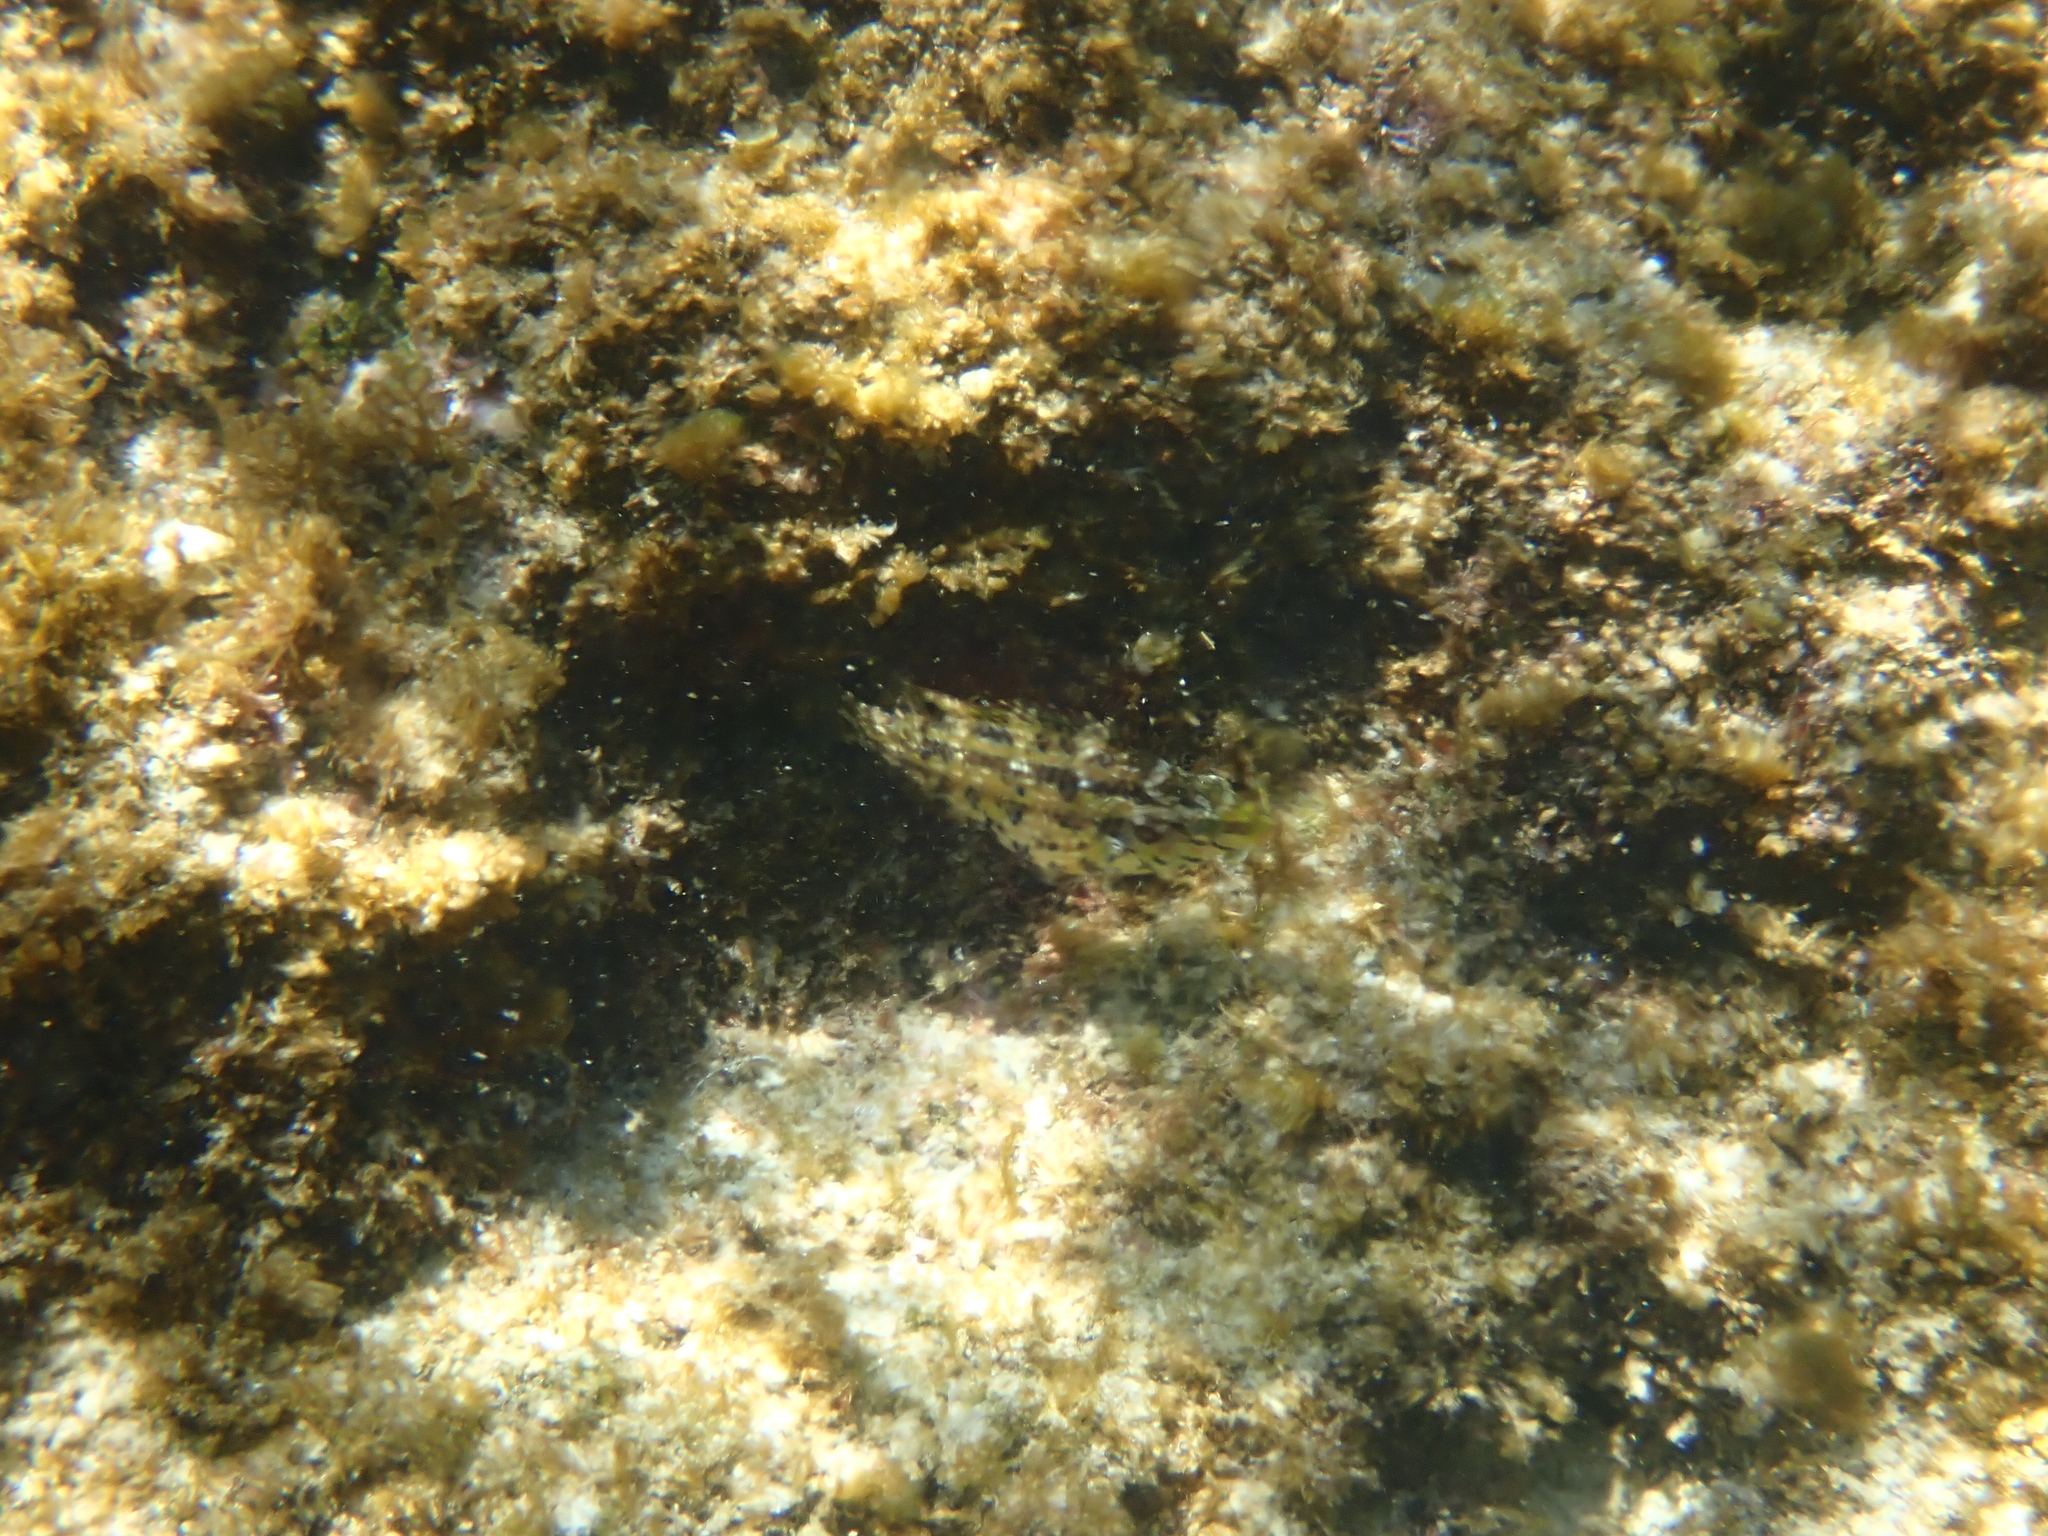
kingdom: Animalia
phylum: Chordata
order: Perciformes
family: Labridae
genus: Symphodus
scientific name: Symphodus roissali
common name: Five-spotted wrasse
